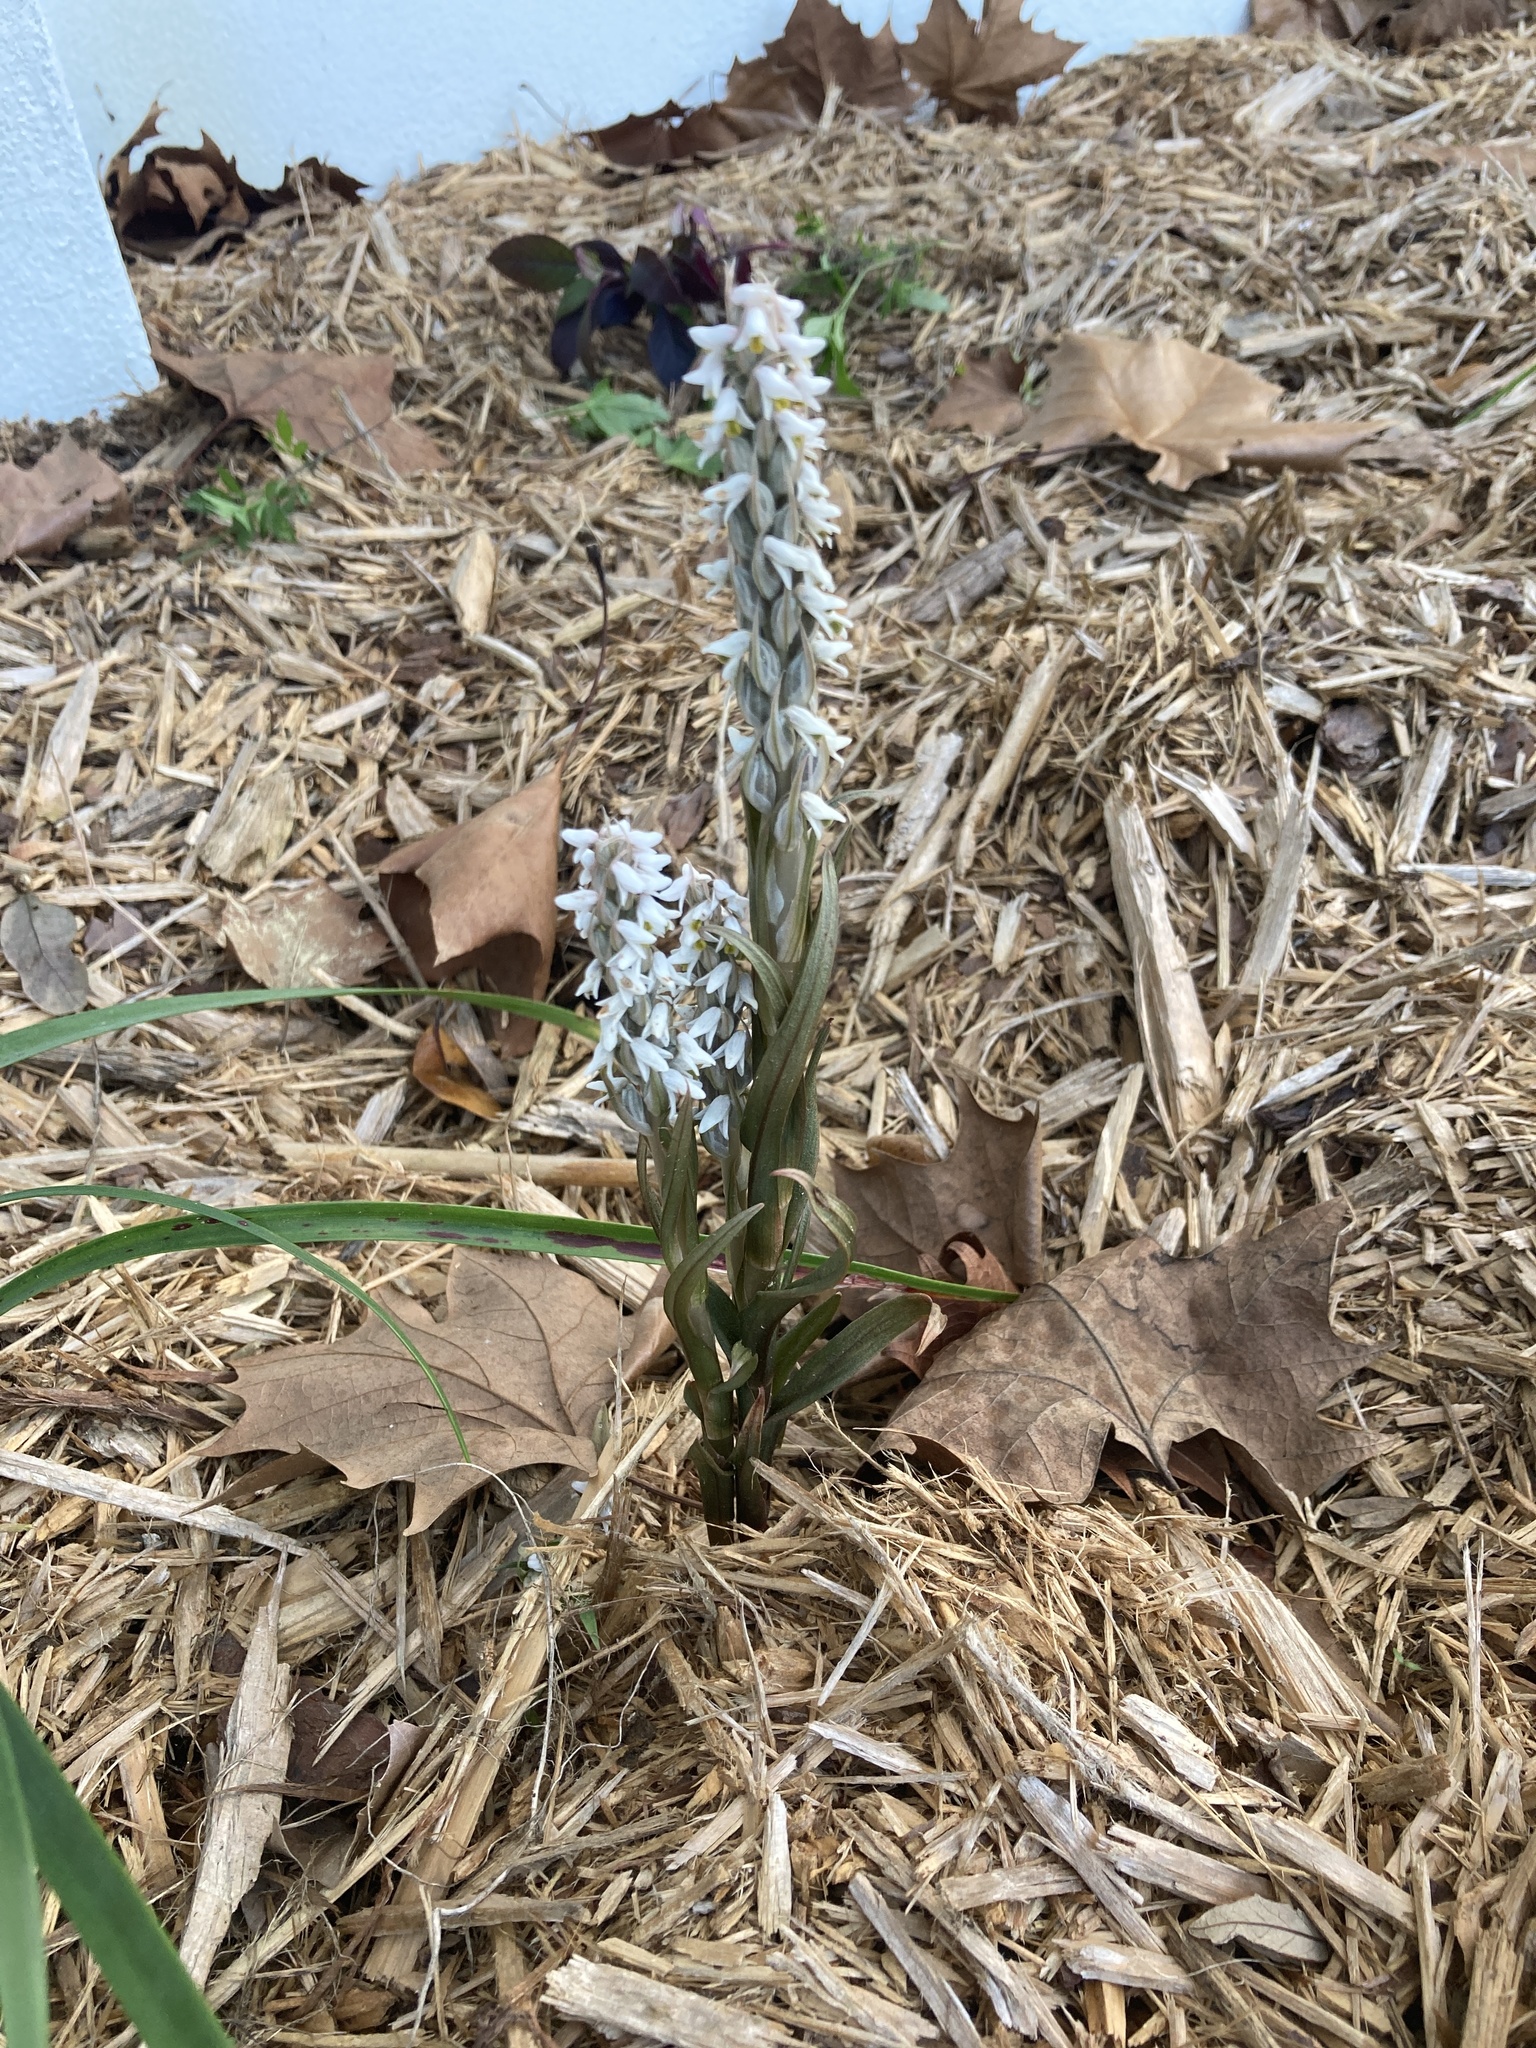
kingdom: Plantae
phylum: Tracheophyta
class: Liliopsida
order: Asparagales
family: Orchidaceae
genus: Zeuxine
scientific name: Zeuxine strateumatica
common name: Soldier's orchid
